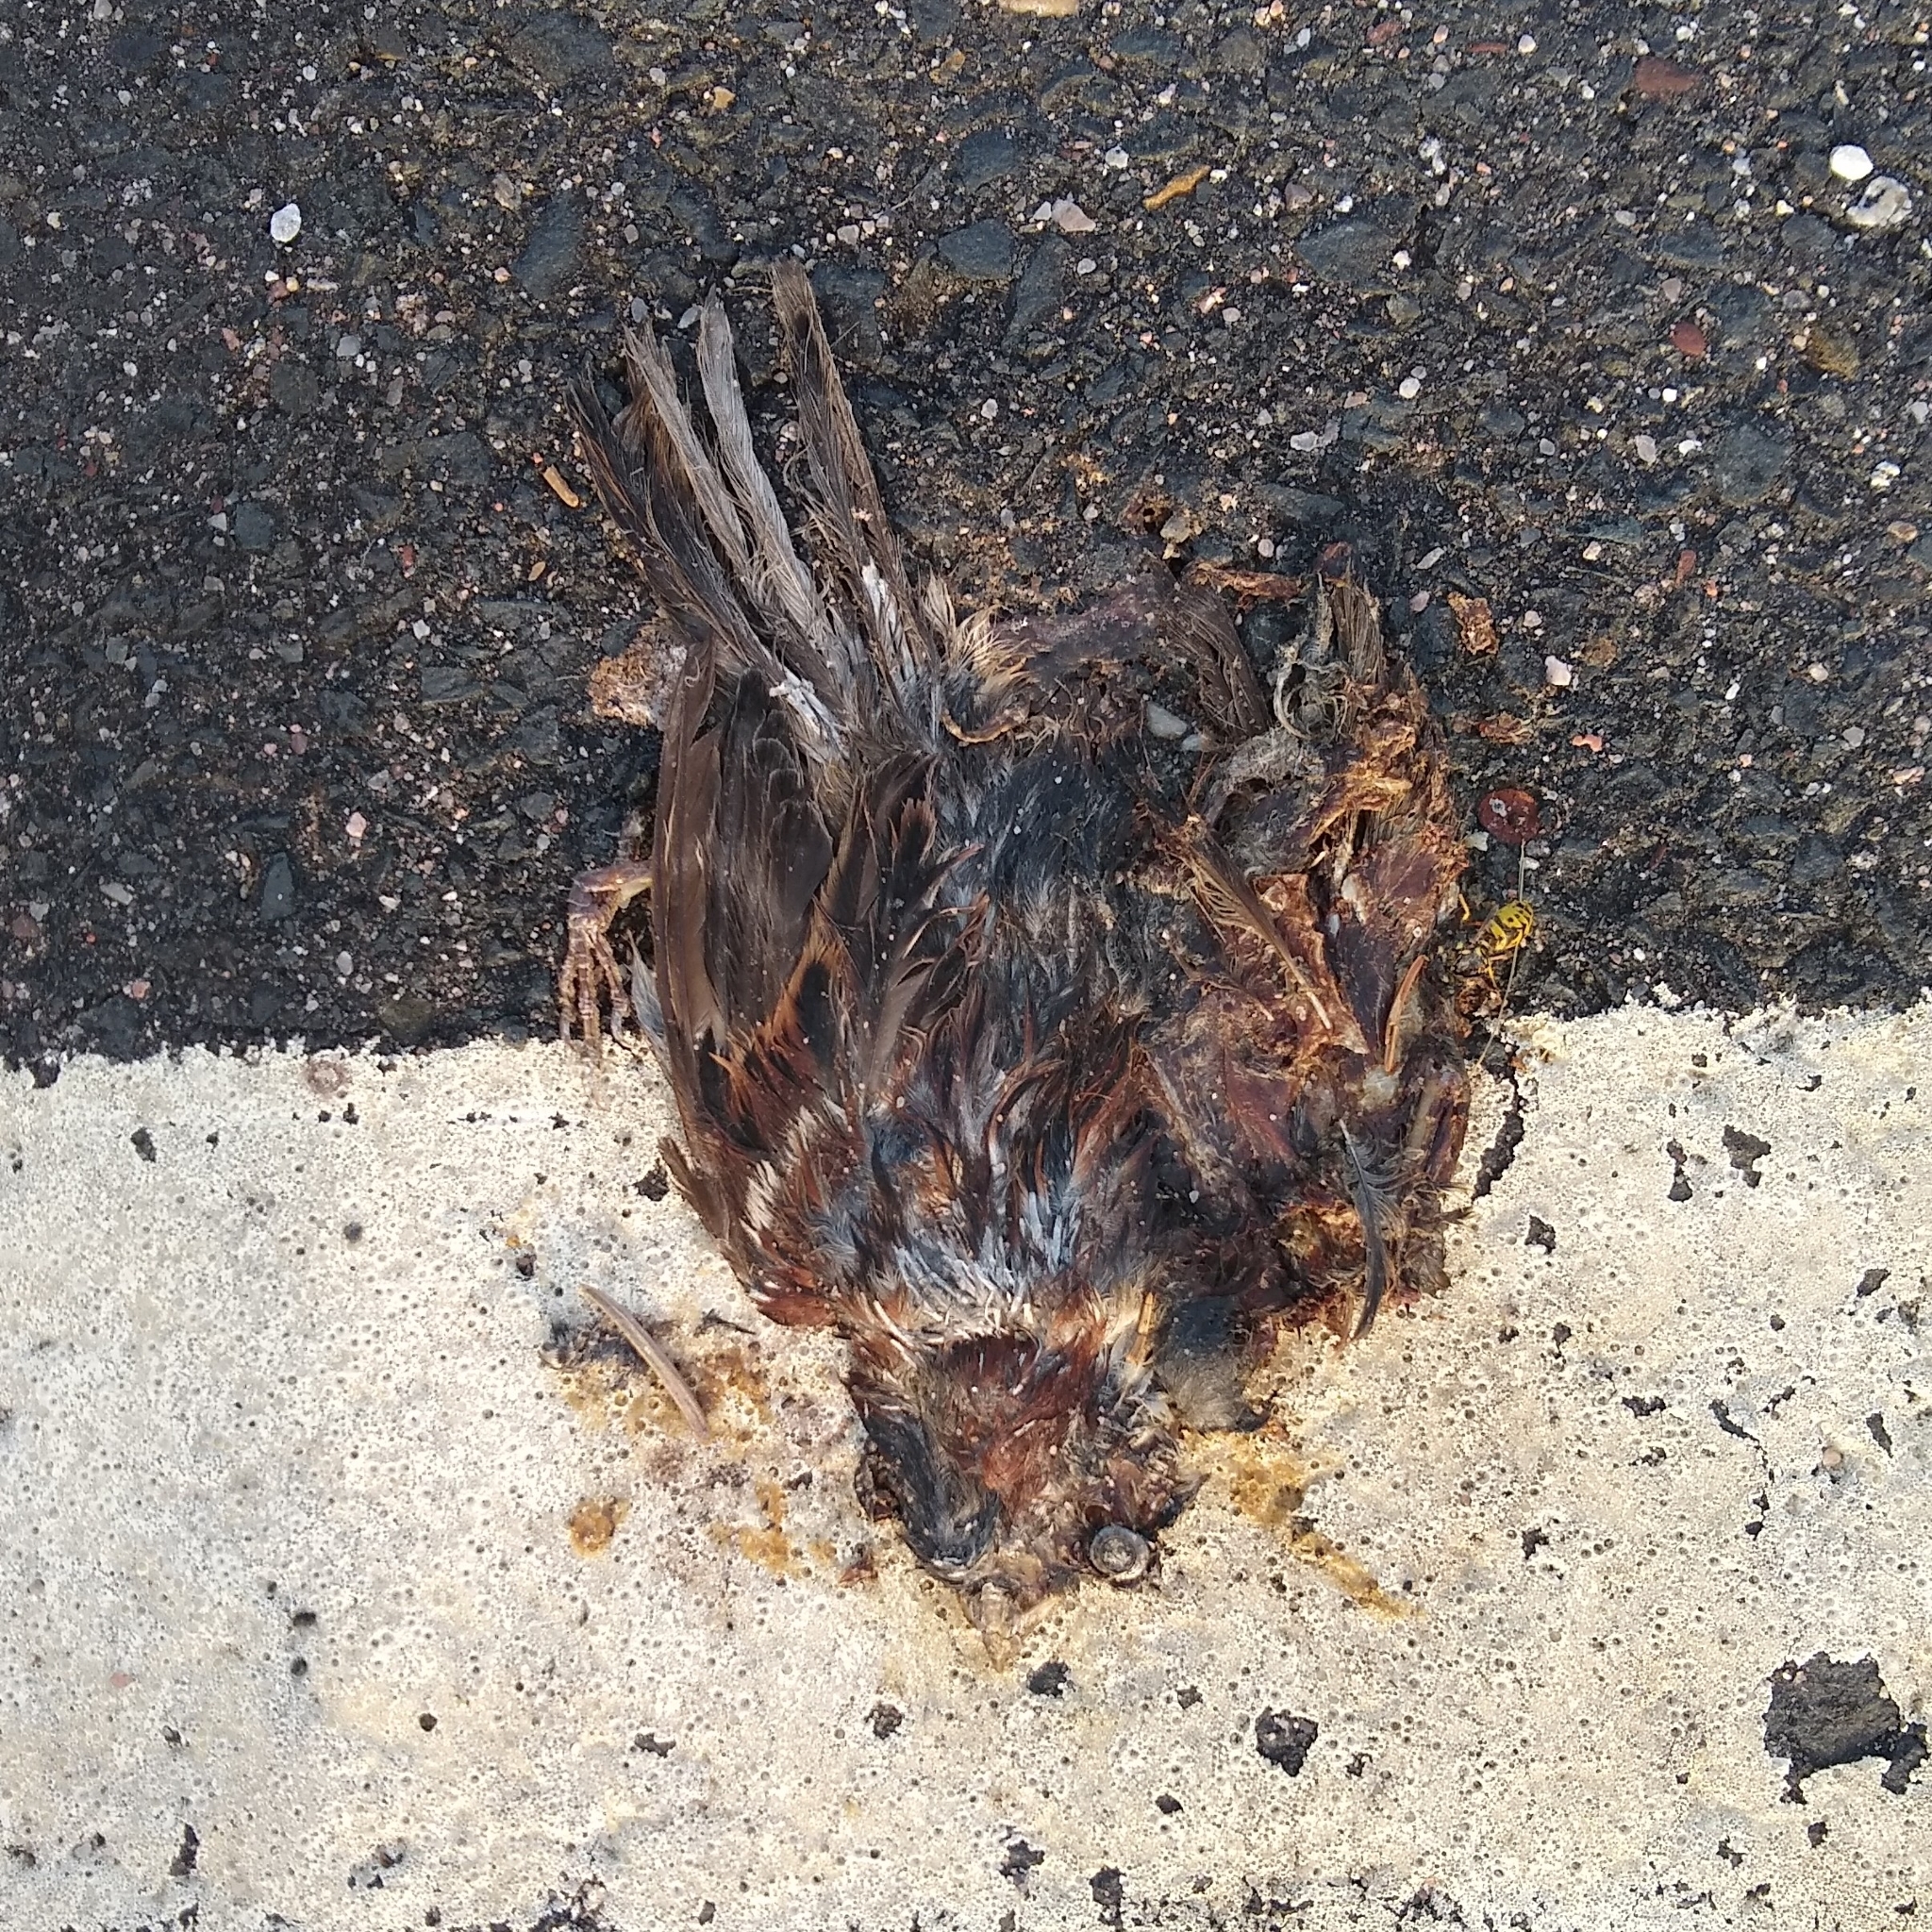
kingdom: Animalia
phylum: Chordata
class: Aves
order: Passeriformes
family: Passeridae
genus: Passer
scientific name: Passer domesticus
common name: House sparrow
